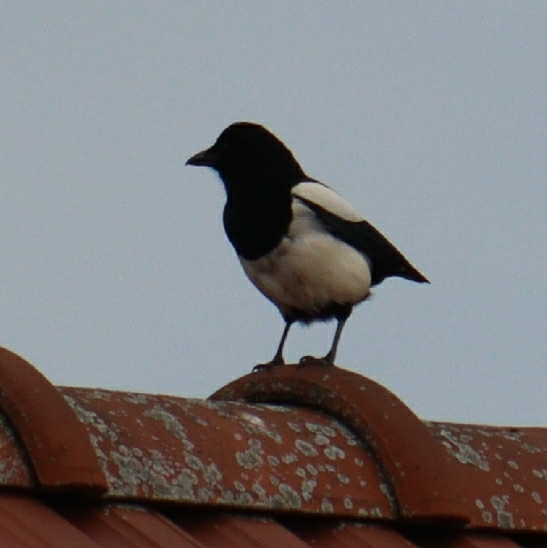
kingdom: Animalia
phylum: Chordata
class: Aves
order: Passeriformes
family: Corvidae
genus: Pica
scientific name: Pica pica
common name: Eurasian magpie
